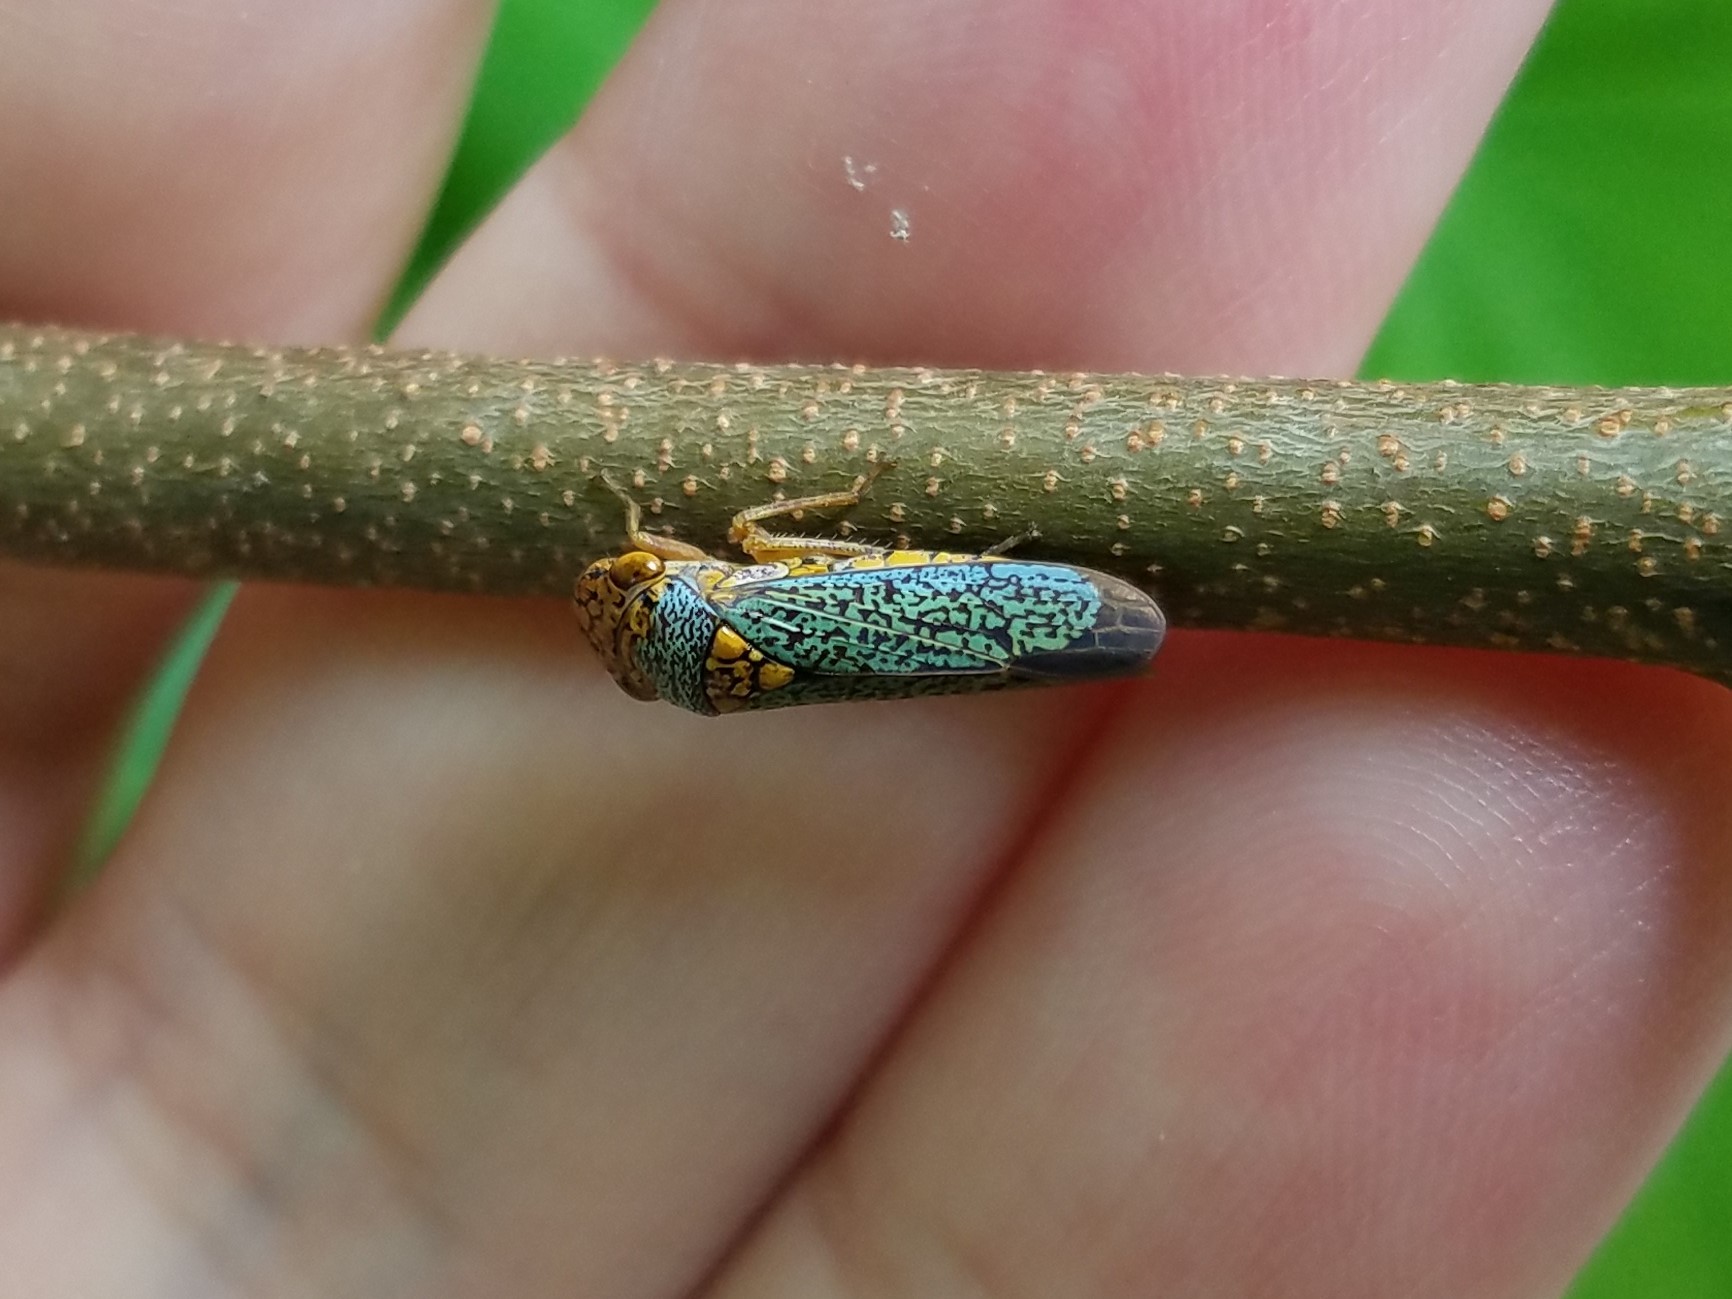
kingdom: Animalia
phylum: Arthropoda
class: Insecta
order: Hemiptera
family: Cicadellidae
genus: Oncometopia
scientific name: Oncometopia orbona
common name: Broad-headed sharpshooter
